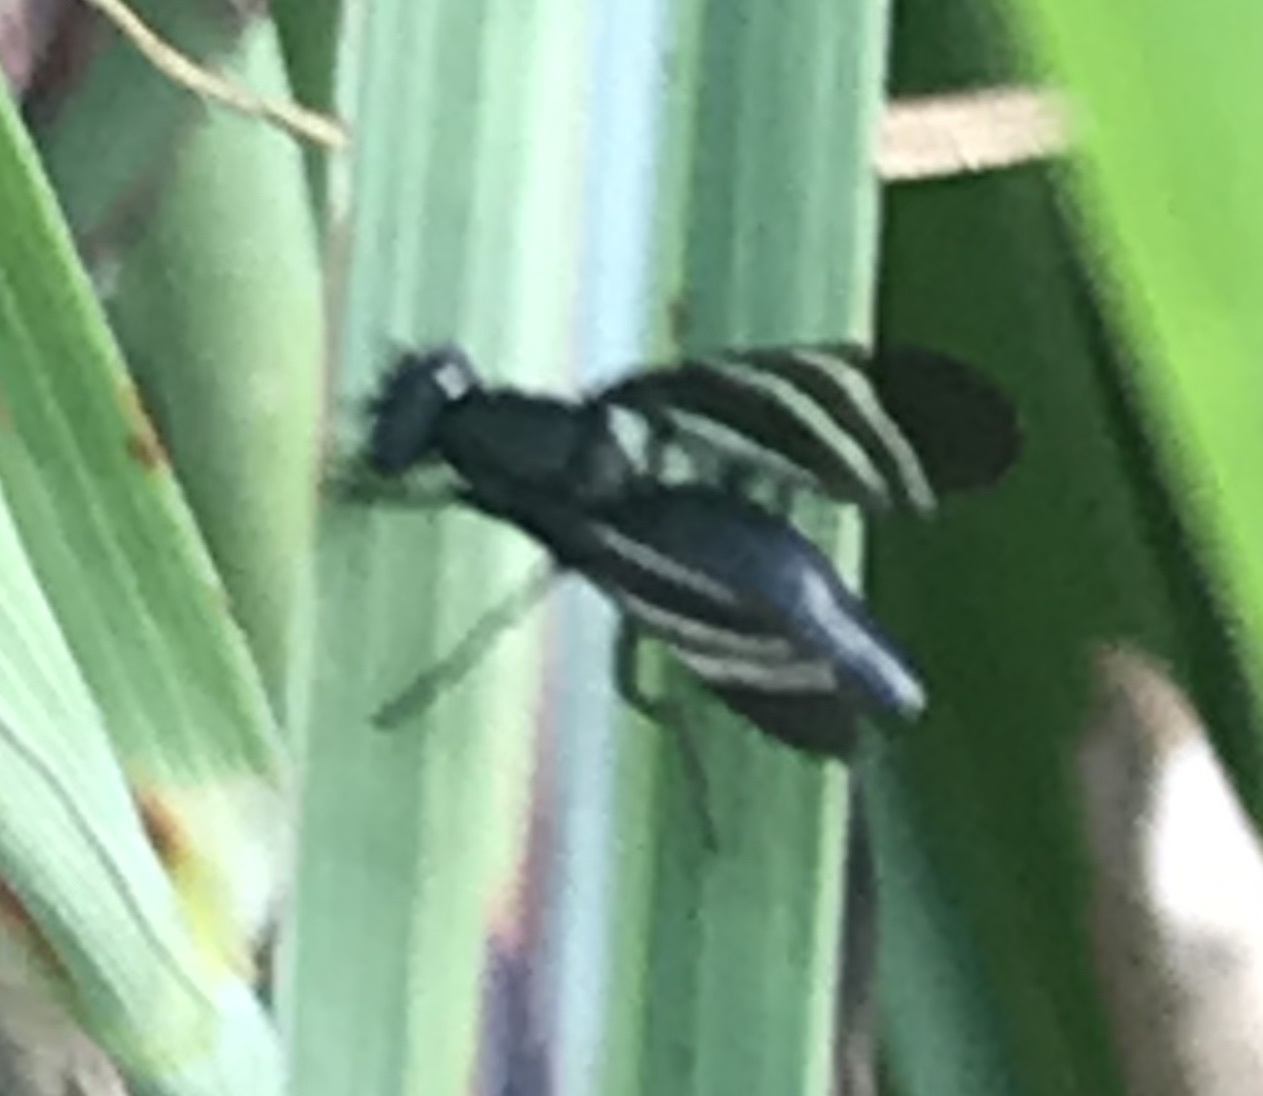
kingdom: Animalia
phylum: Arthropoda
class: Insecta
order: Diptera
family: Ulidiidae
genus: Tritoxa
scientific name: Tritoxa flexa
